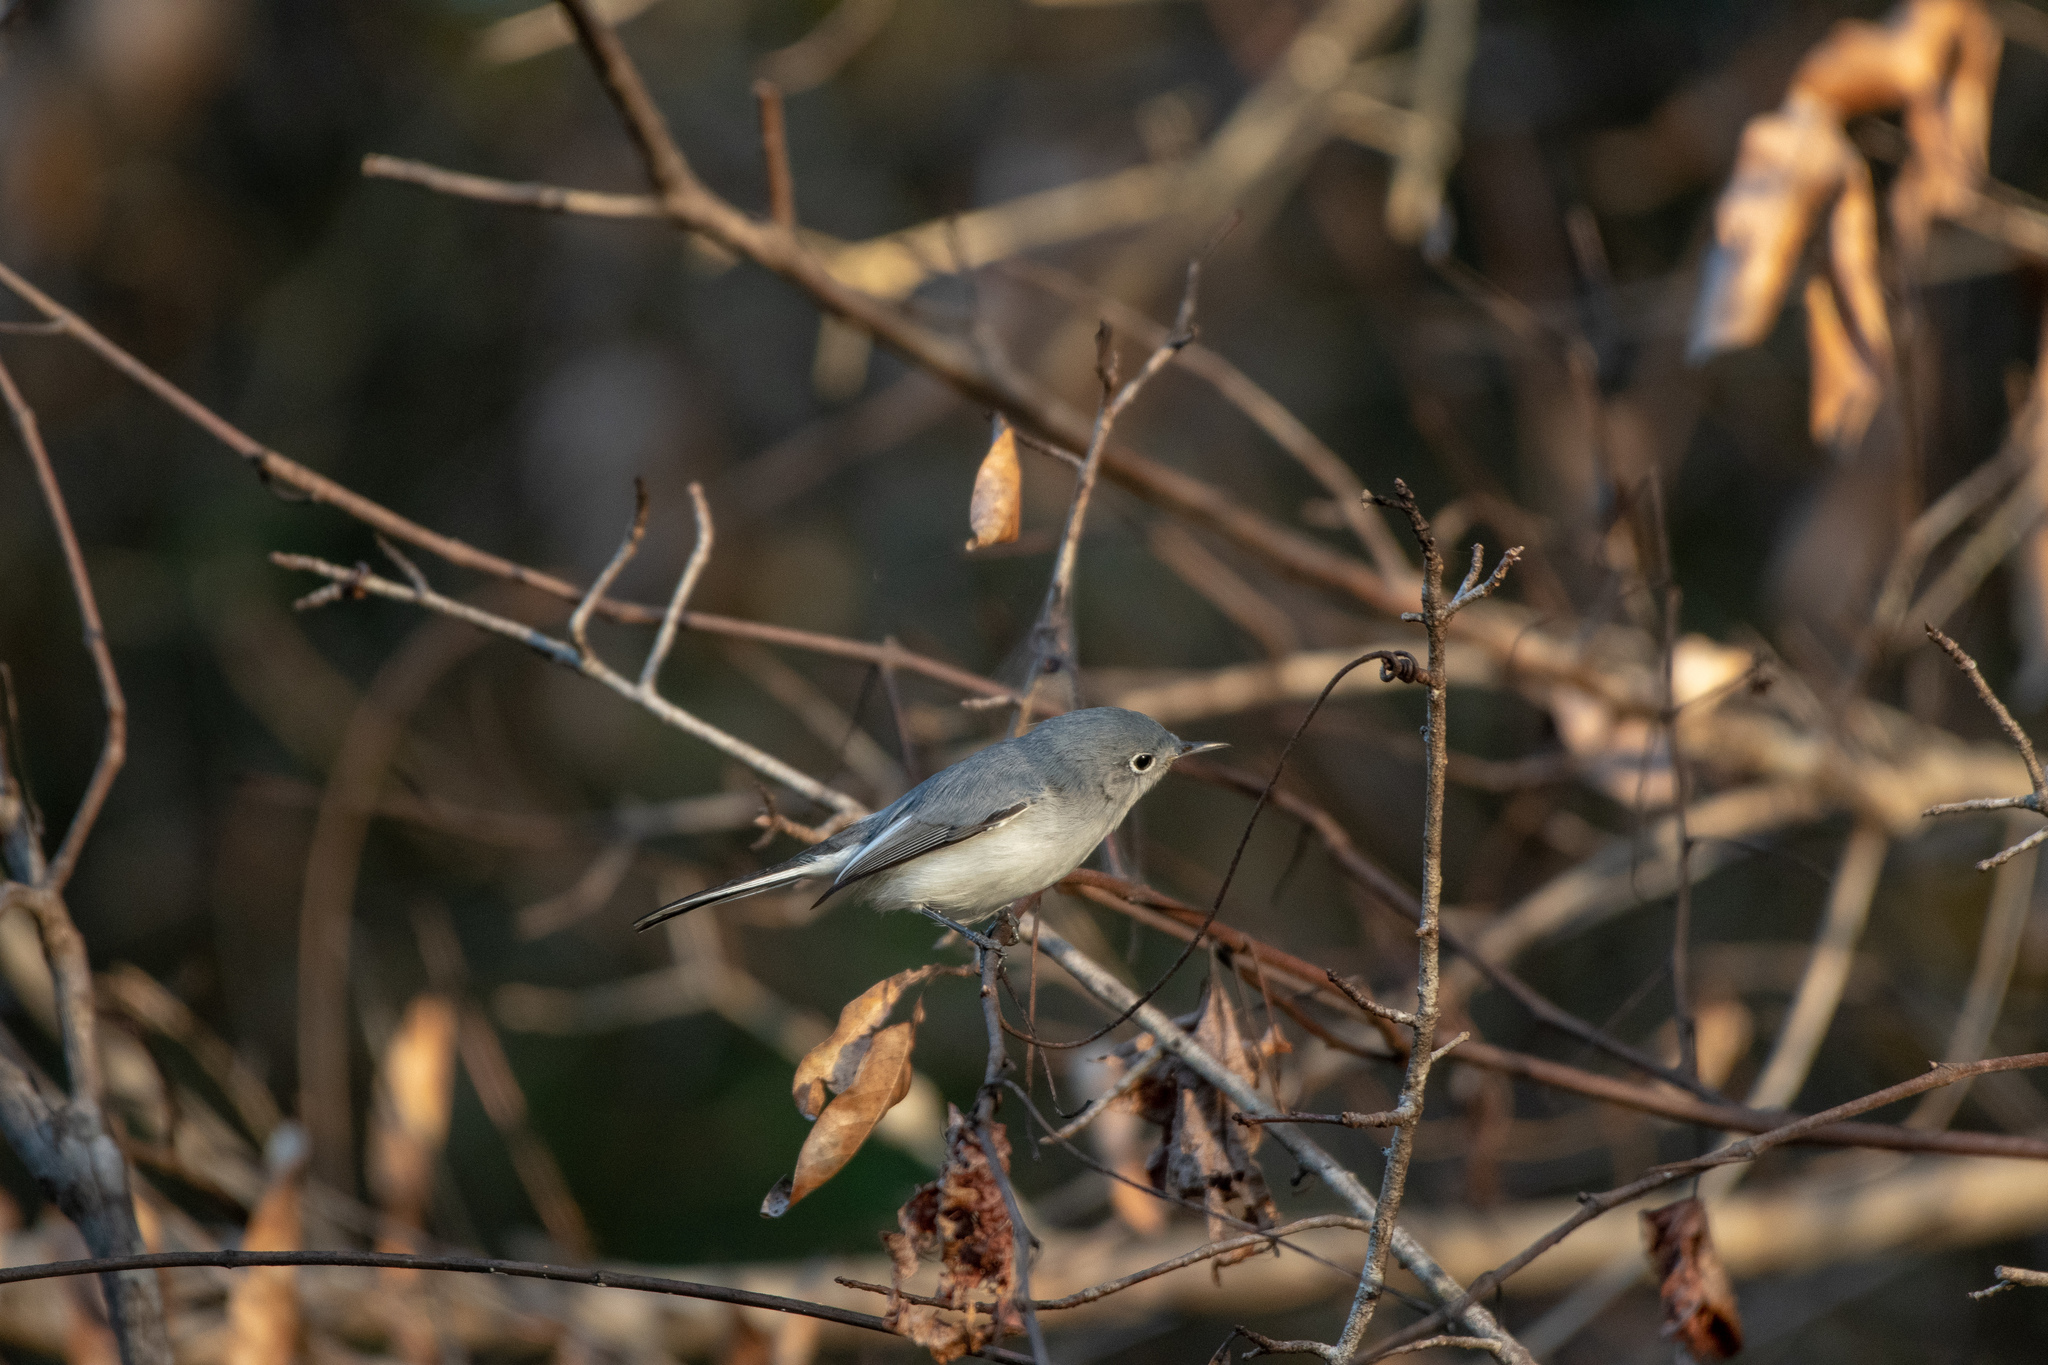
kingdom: Animalia
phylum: Chordata
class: Aves
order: Passeriformes
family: Polioptilidae
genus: Polioptila
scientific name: Polioptila caerulea
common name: Blue-gray gnatcatcher
